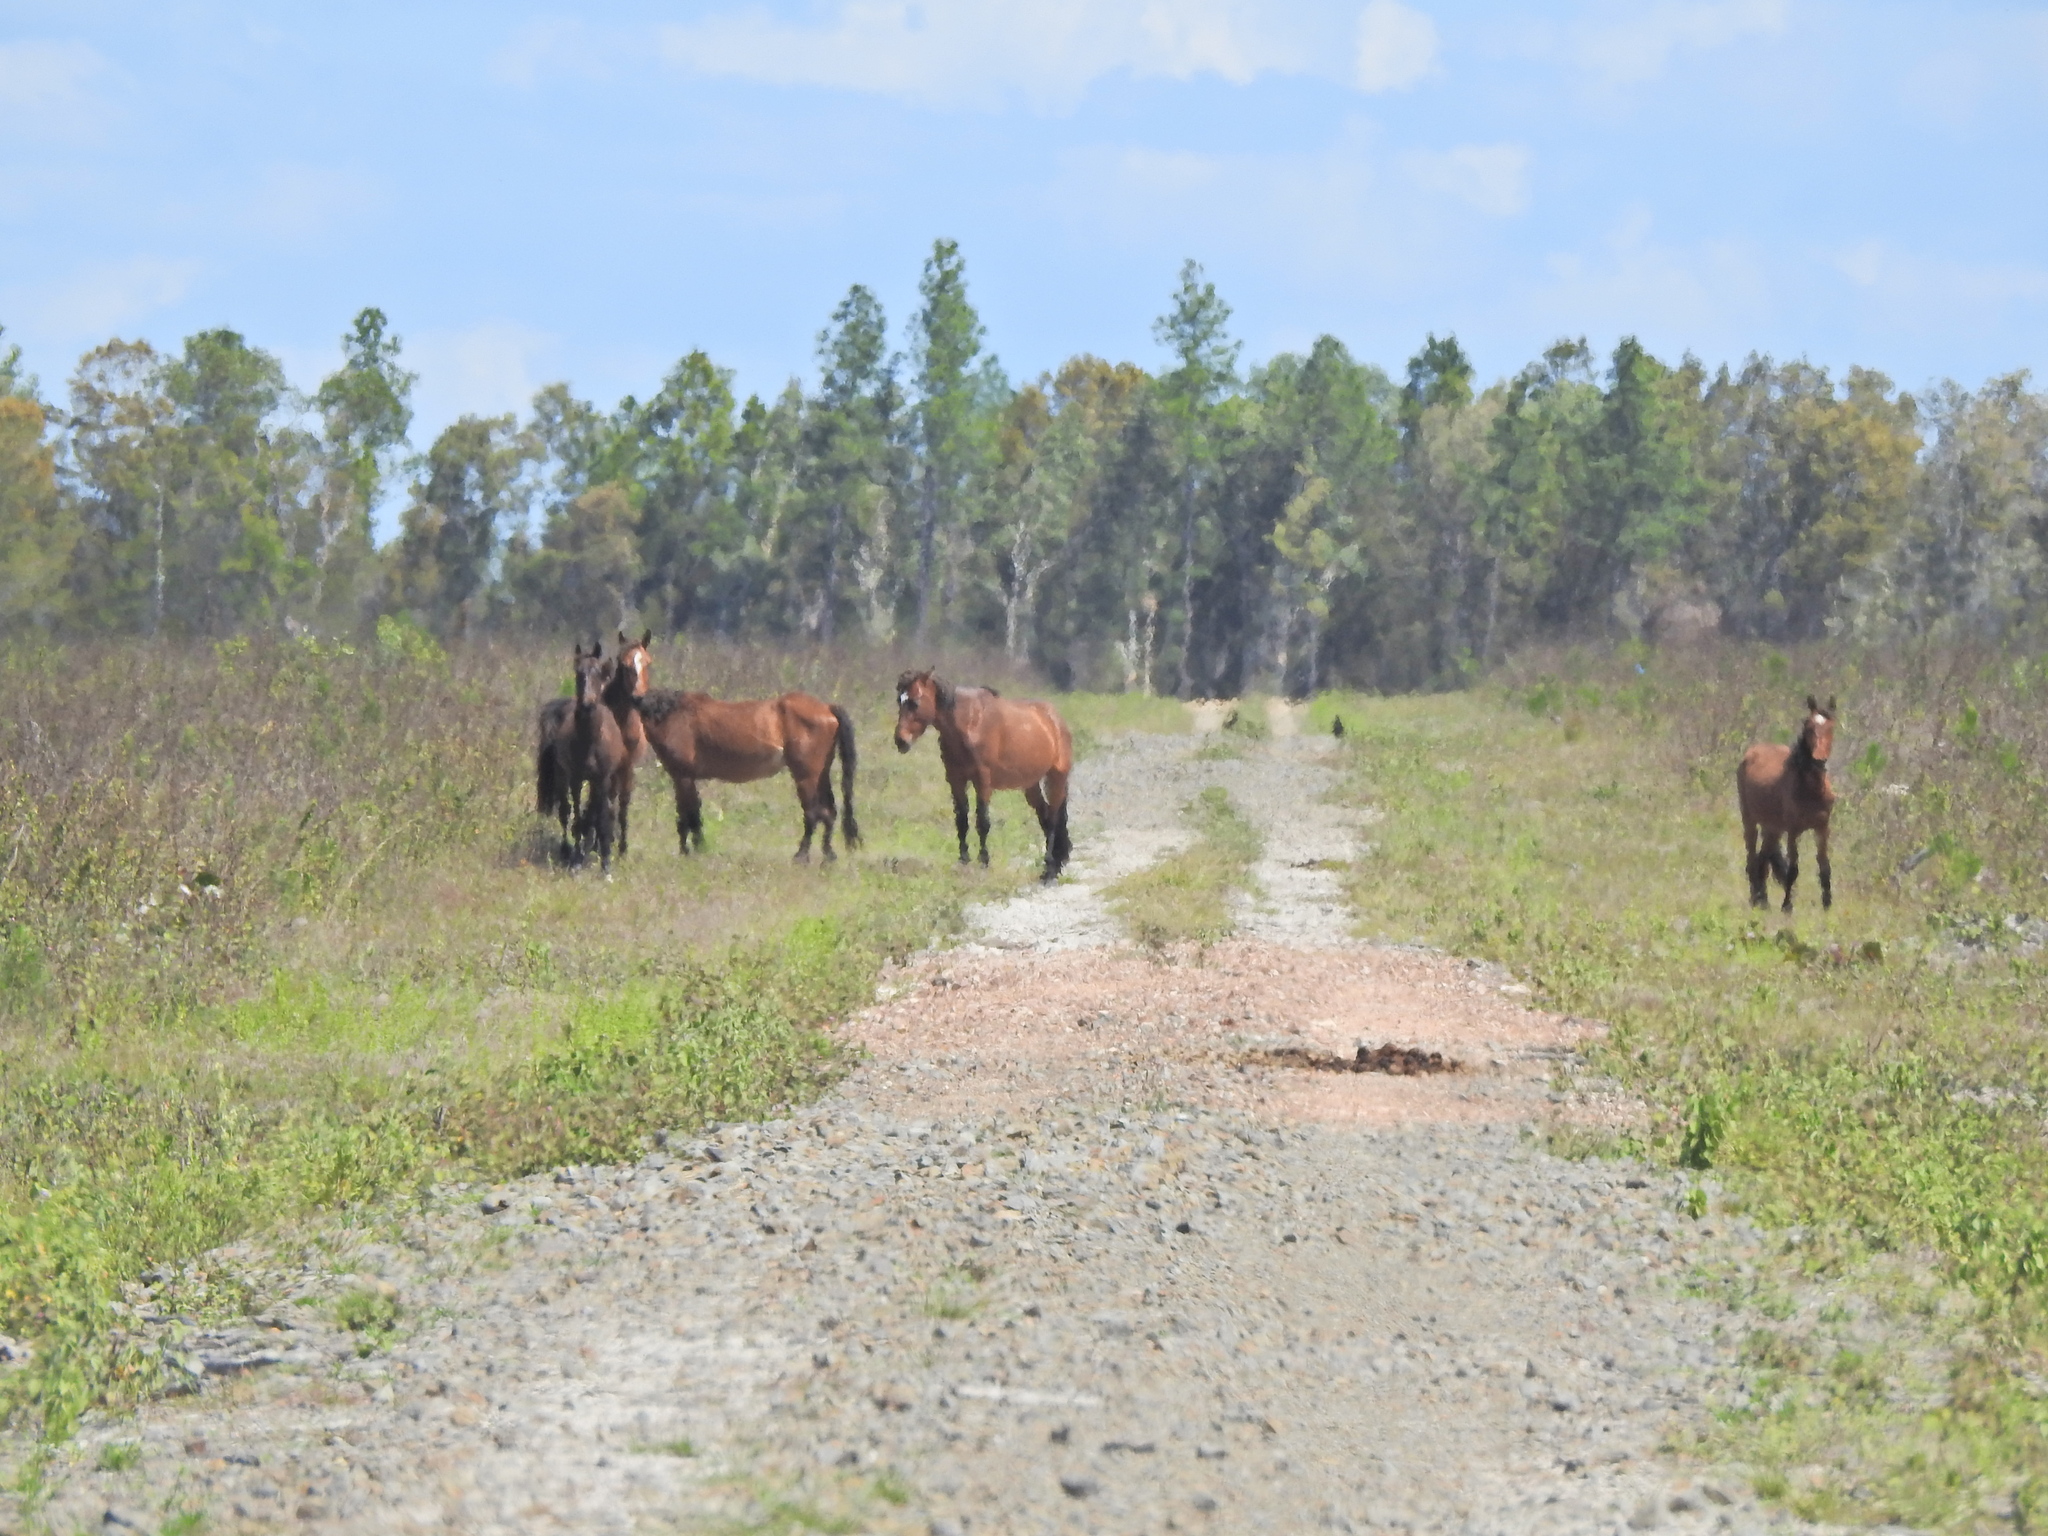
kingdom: Animalia
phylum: Chordata
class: Mammalia
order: Perissodactyla
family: Equidae
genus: Equus
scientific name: Equus caballus
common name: Horse
